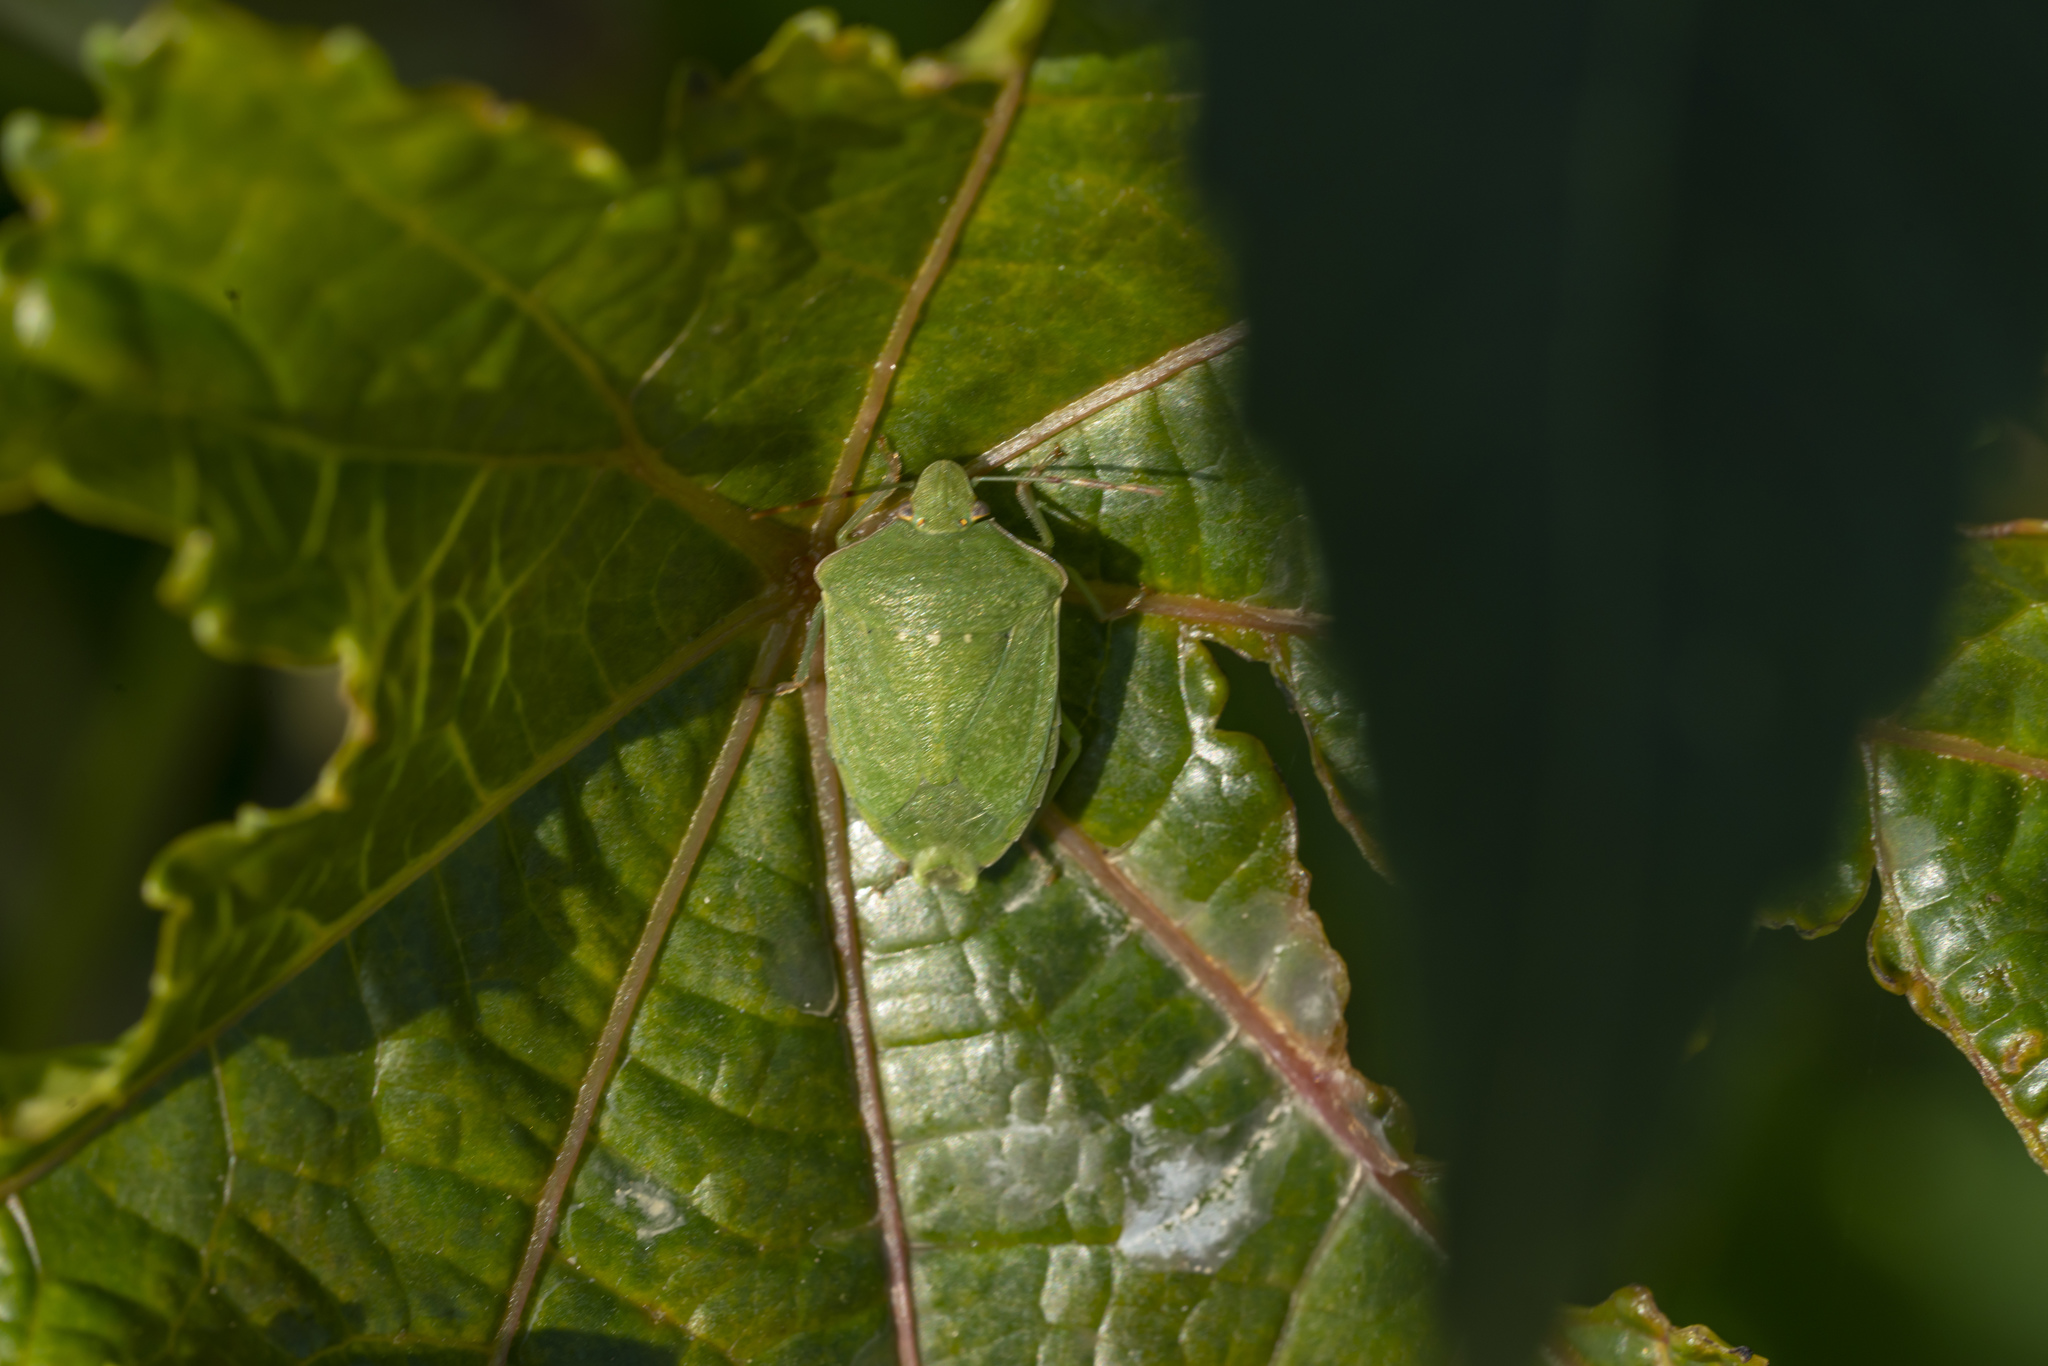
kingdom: Animalia
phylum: Arthropoda
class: Insecta
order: Hemiptera
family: Pentatomidae
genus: Nezara
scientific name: Nezara viridula
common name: Southern green stink bug
